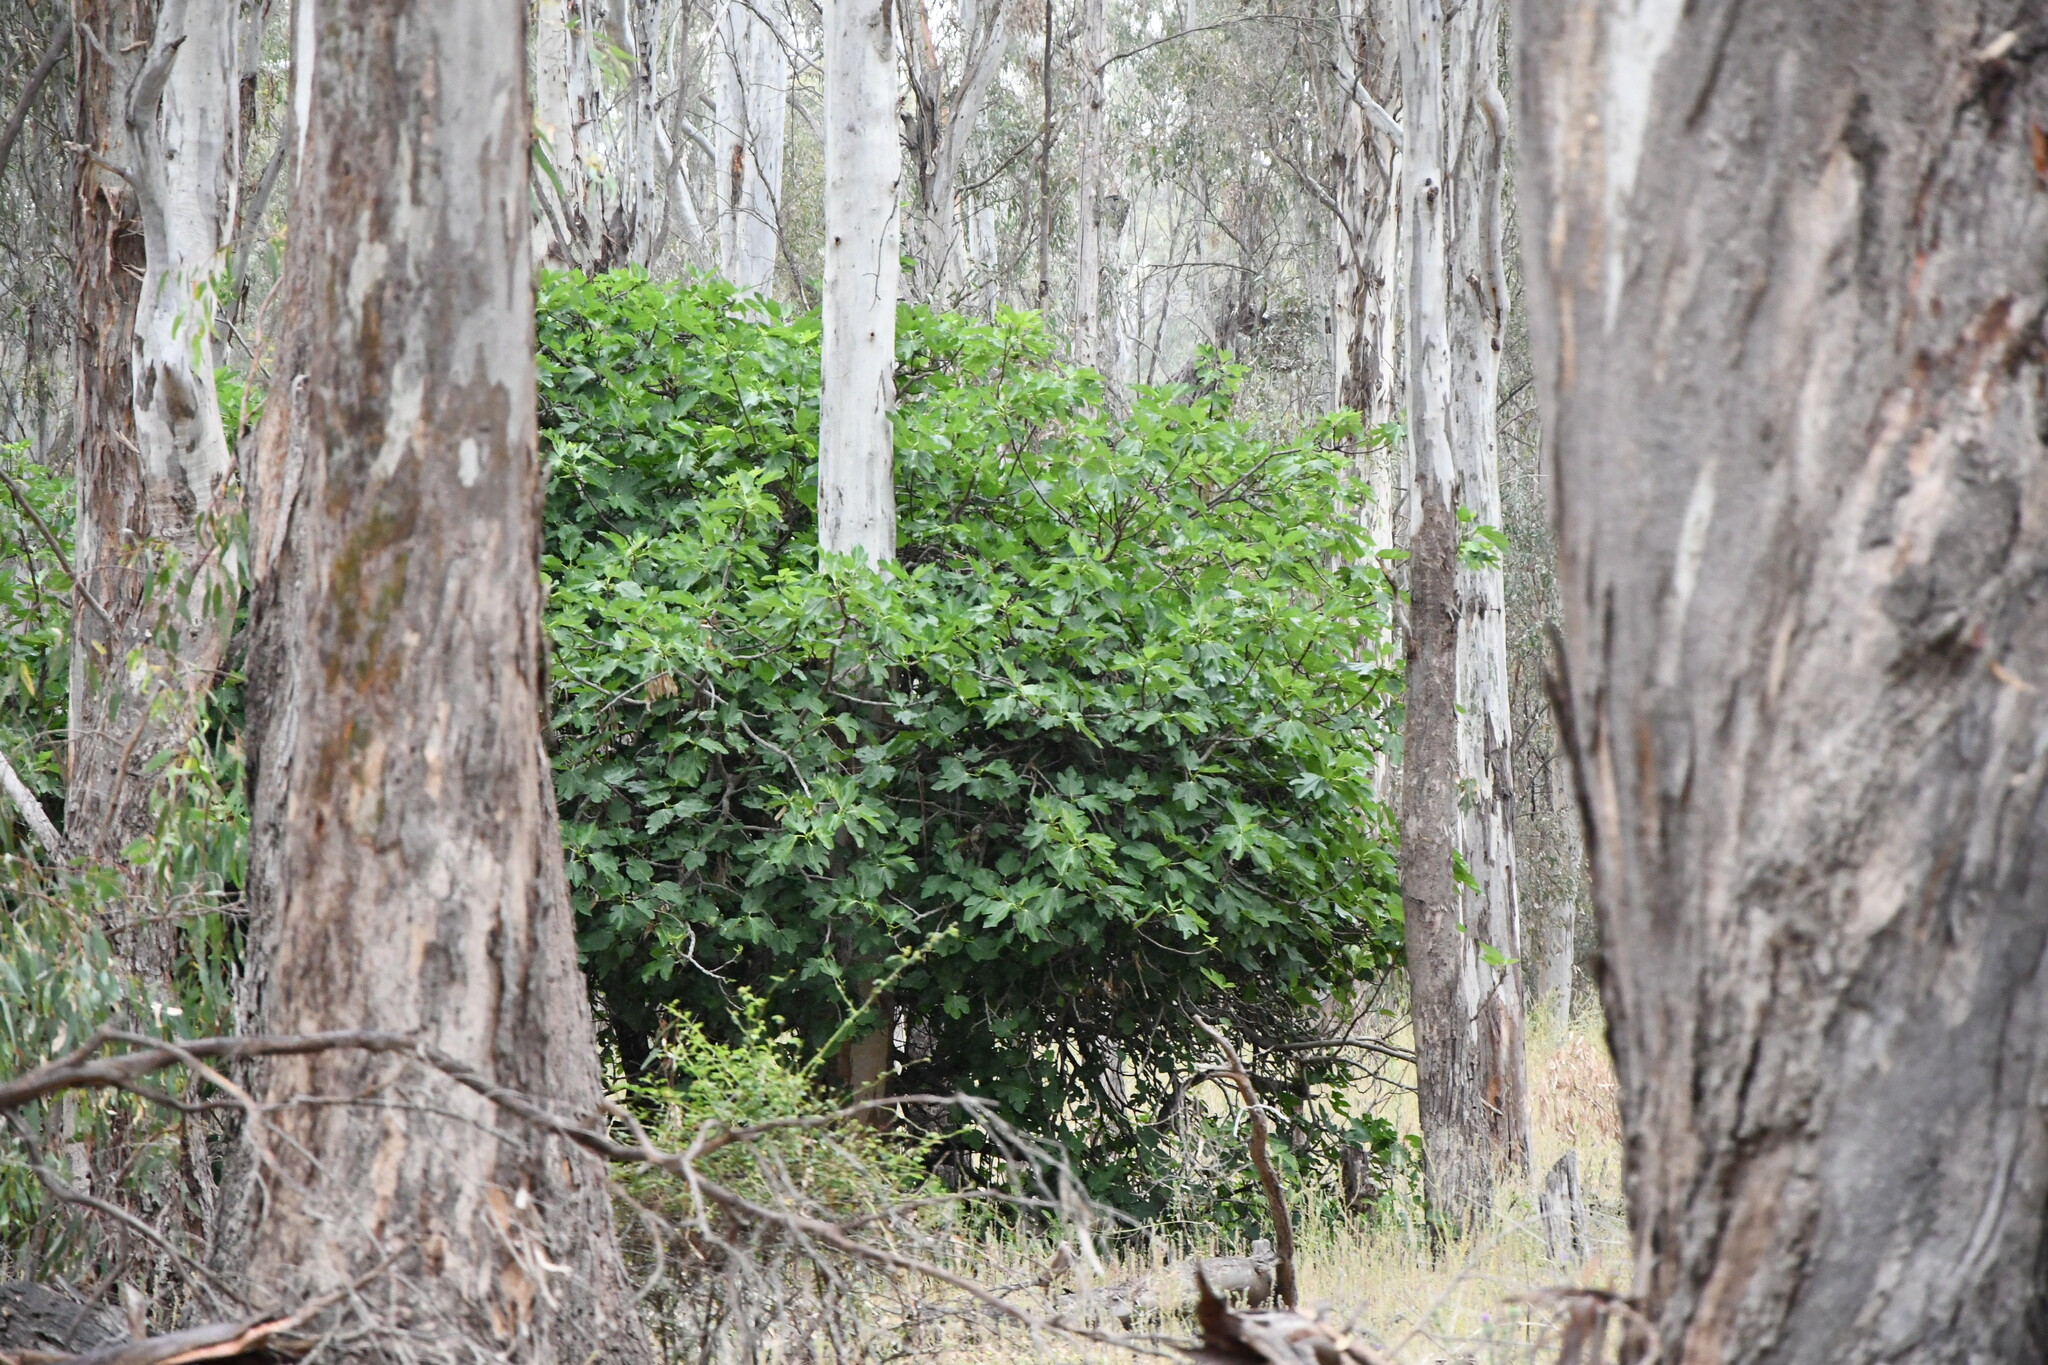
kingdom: Plantae
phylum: Tracheophyta
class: Magnoliopsida
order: Rosales
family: Moraceae
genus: Ficus
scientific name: Ficus carica
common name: Fig
